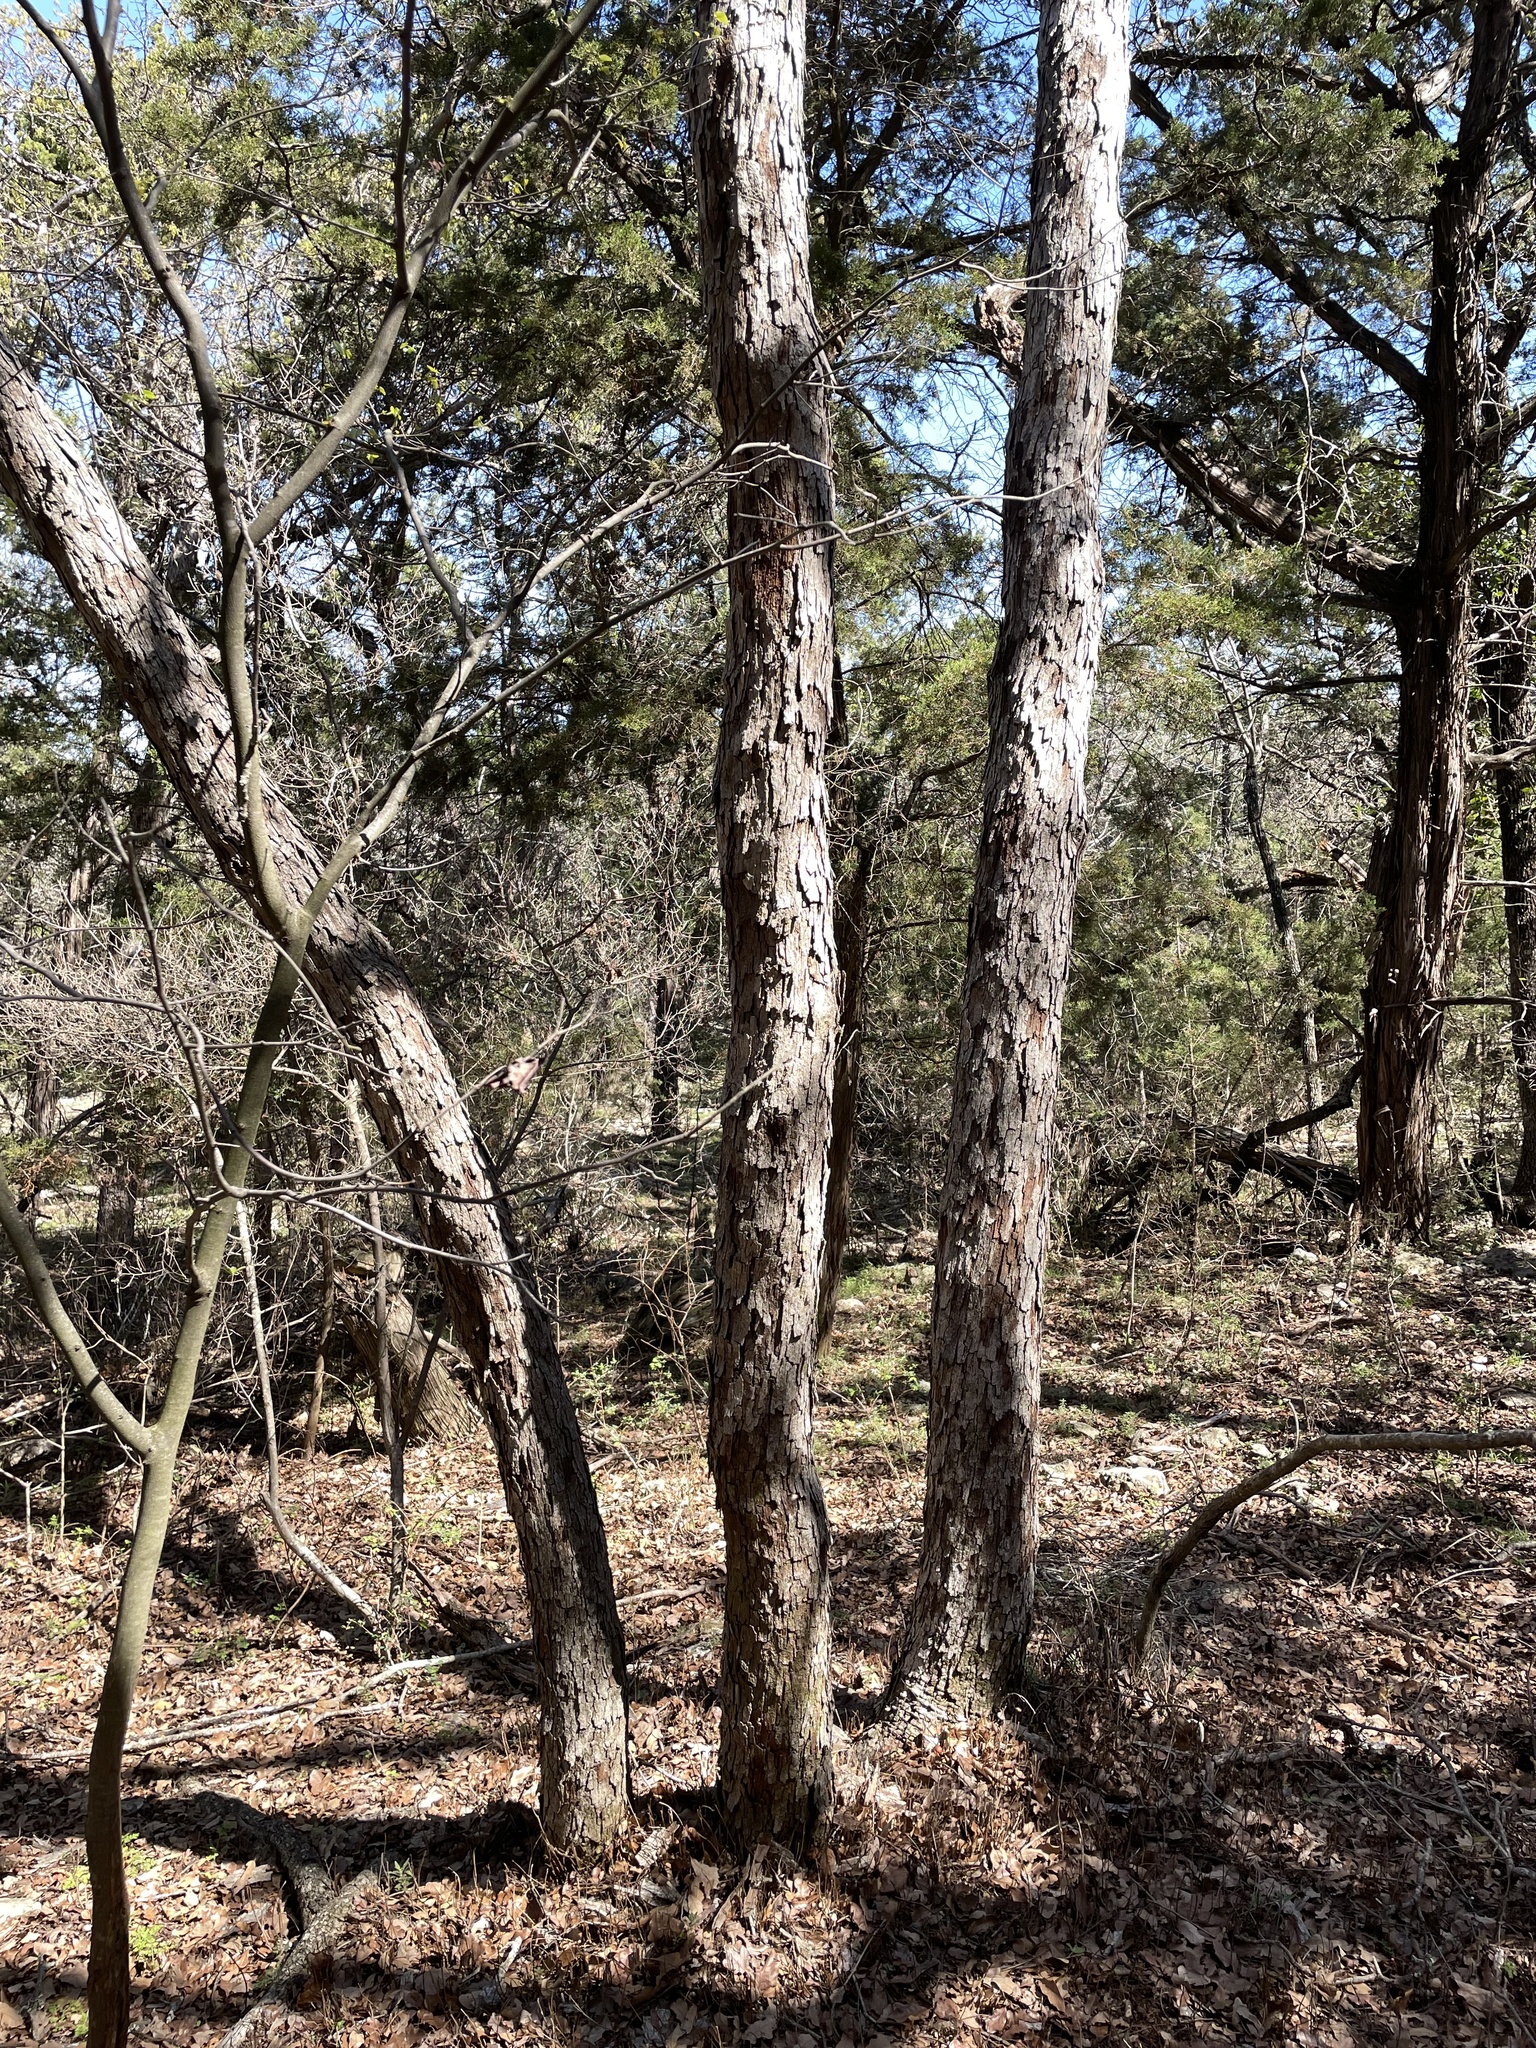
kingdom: Plantae
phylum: Tracheophyta
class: Magnoliopsida
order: Fagales
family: Fagaceae
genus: Quercus
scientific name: Quercus sinuata
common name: Durand oak
